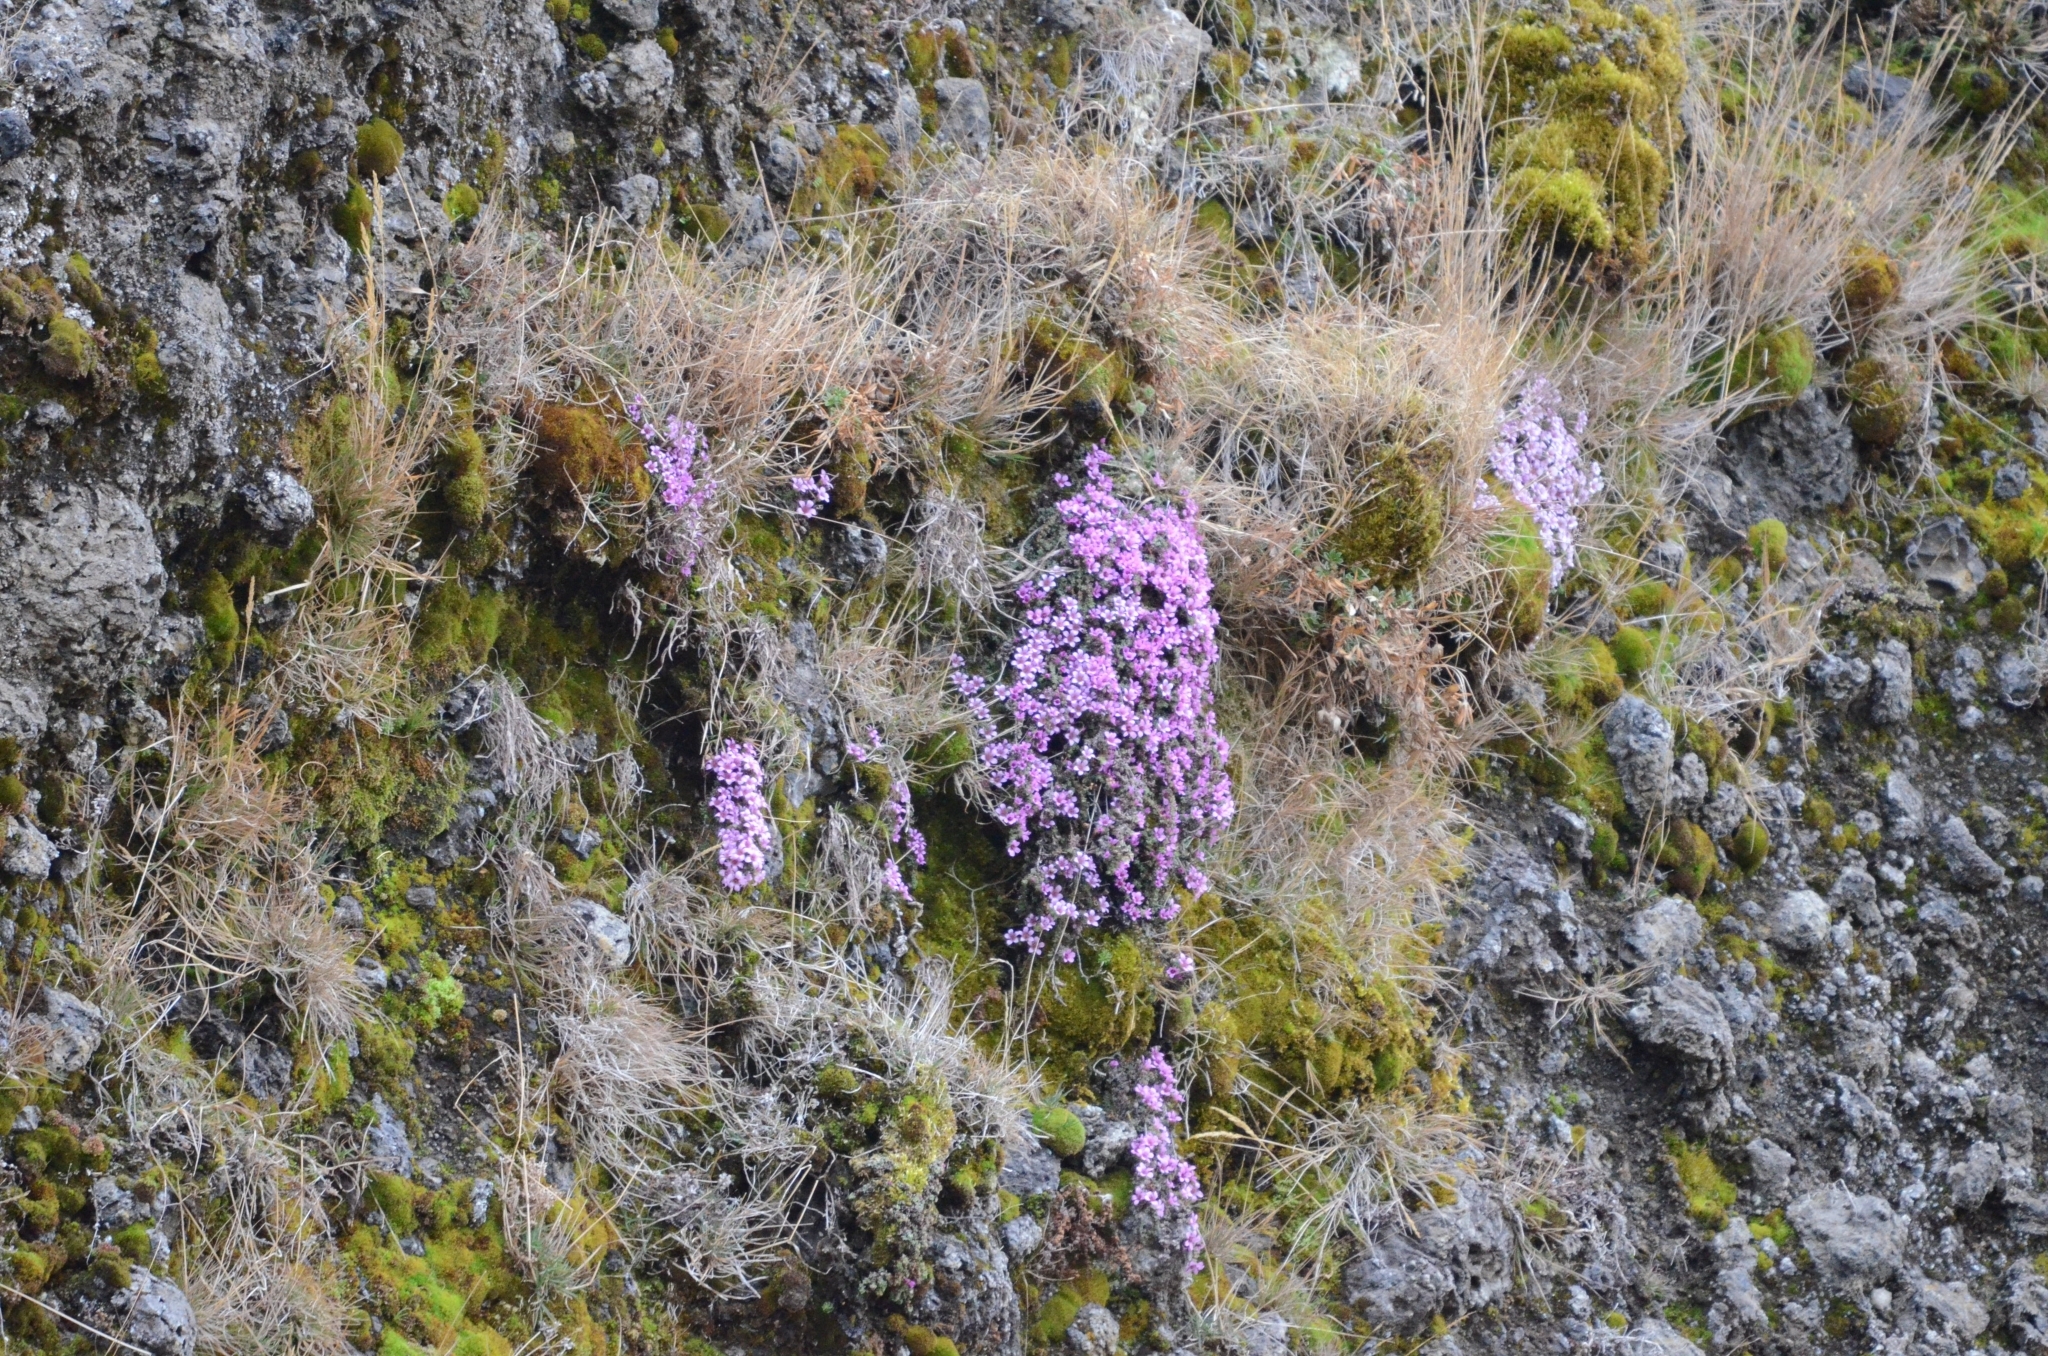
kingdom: Plantae
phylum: Tracheophyta
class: Magnoliopsida
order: Saxifragales
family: Saxifragaceae
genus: Saxifraga
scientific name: Saxifraga oppositifolia
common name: Purple saxifrage
